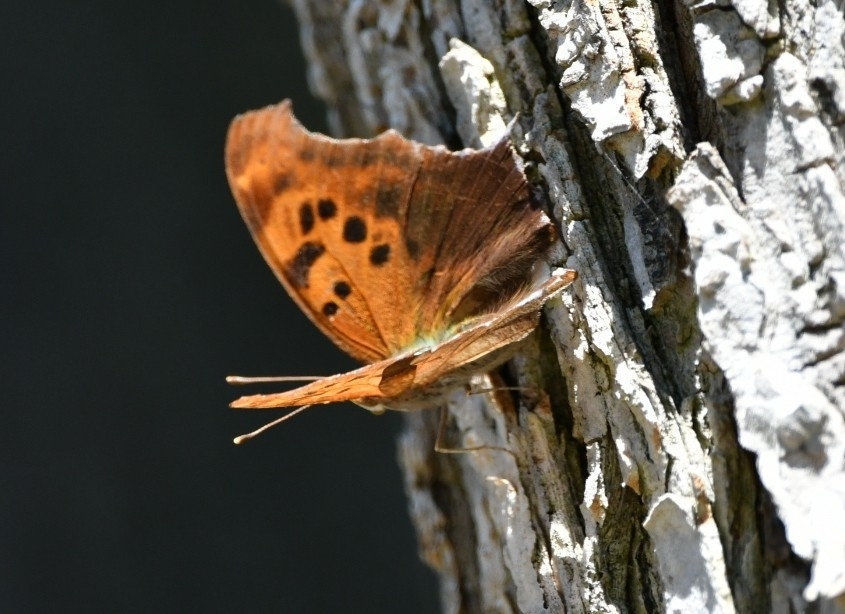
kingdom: Animalia
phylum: Arthropoda
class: Insecta
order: Lepidoptera
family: Nymphalidae
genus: Polygonia
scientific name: Polygonia interrogationis
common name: Question mark
